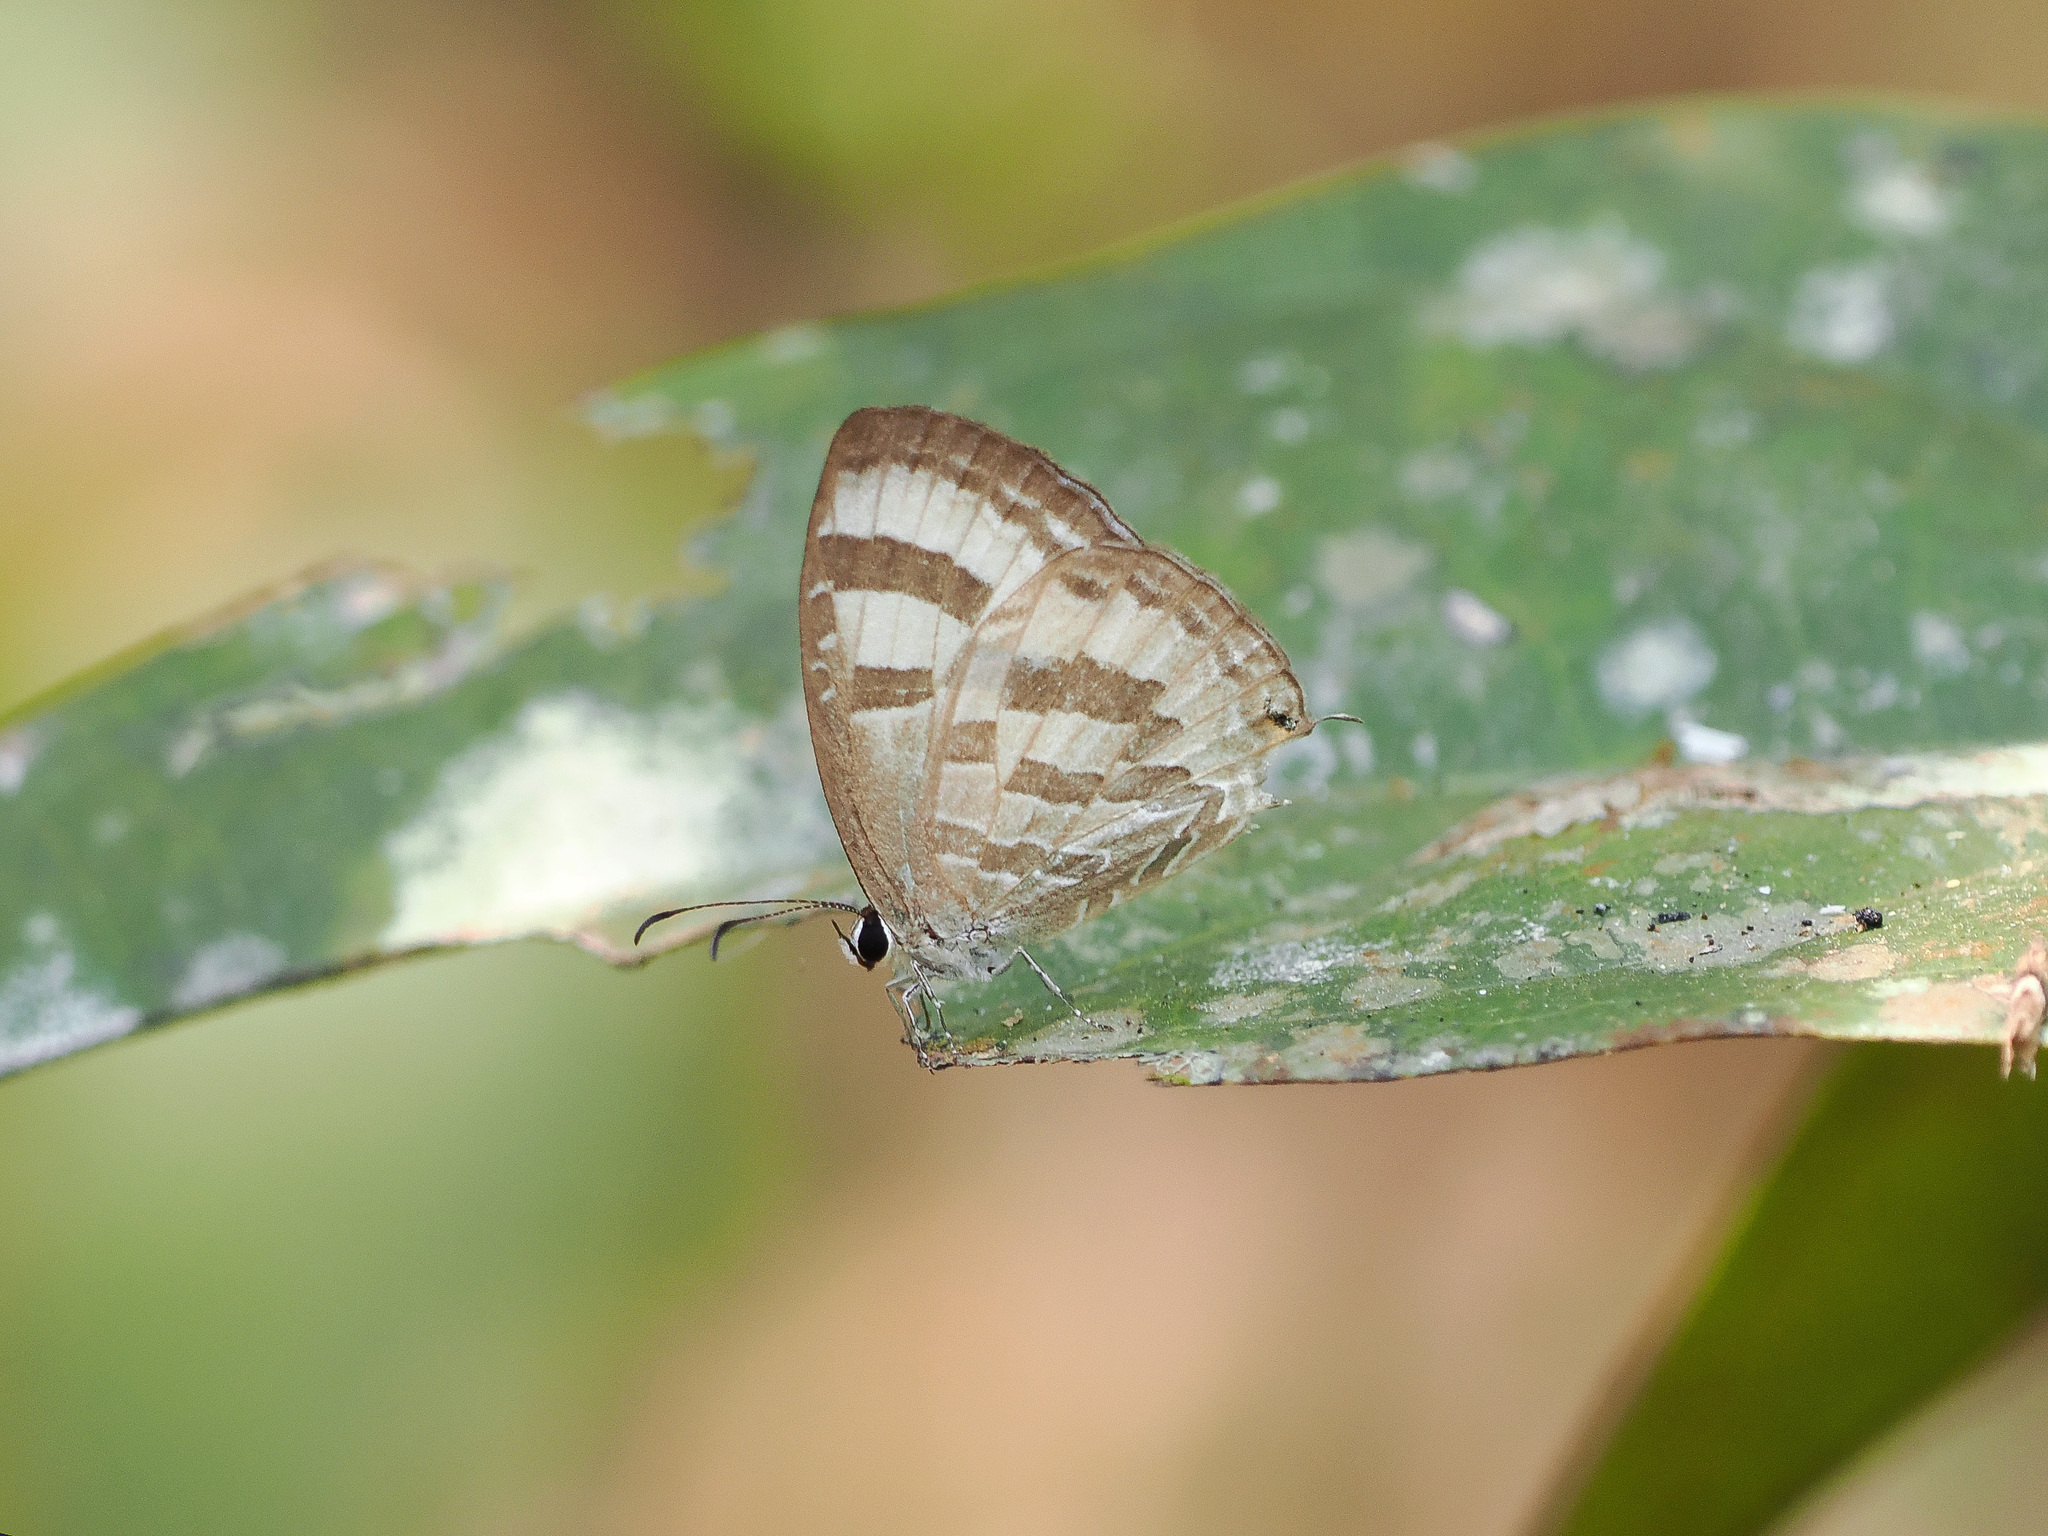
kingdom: Animalia
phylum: Arthropoda
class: Insecta
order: Lepidoptera
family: Lycaenidae
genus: Jamides
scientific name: Jamides celeno
